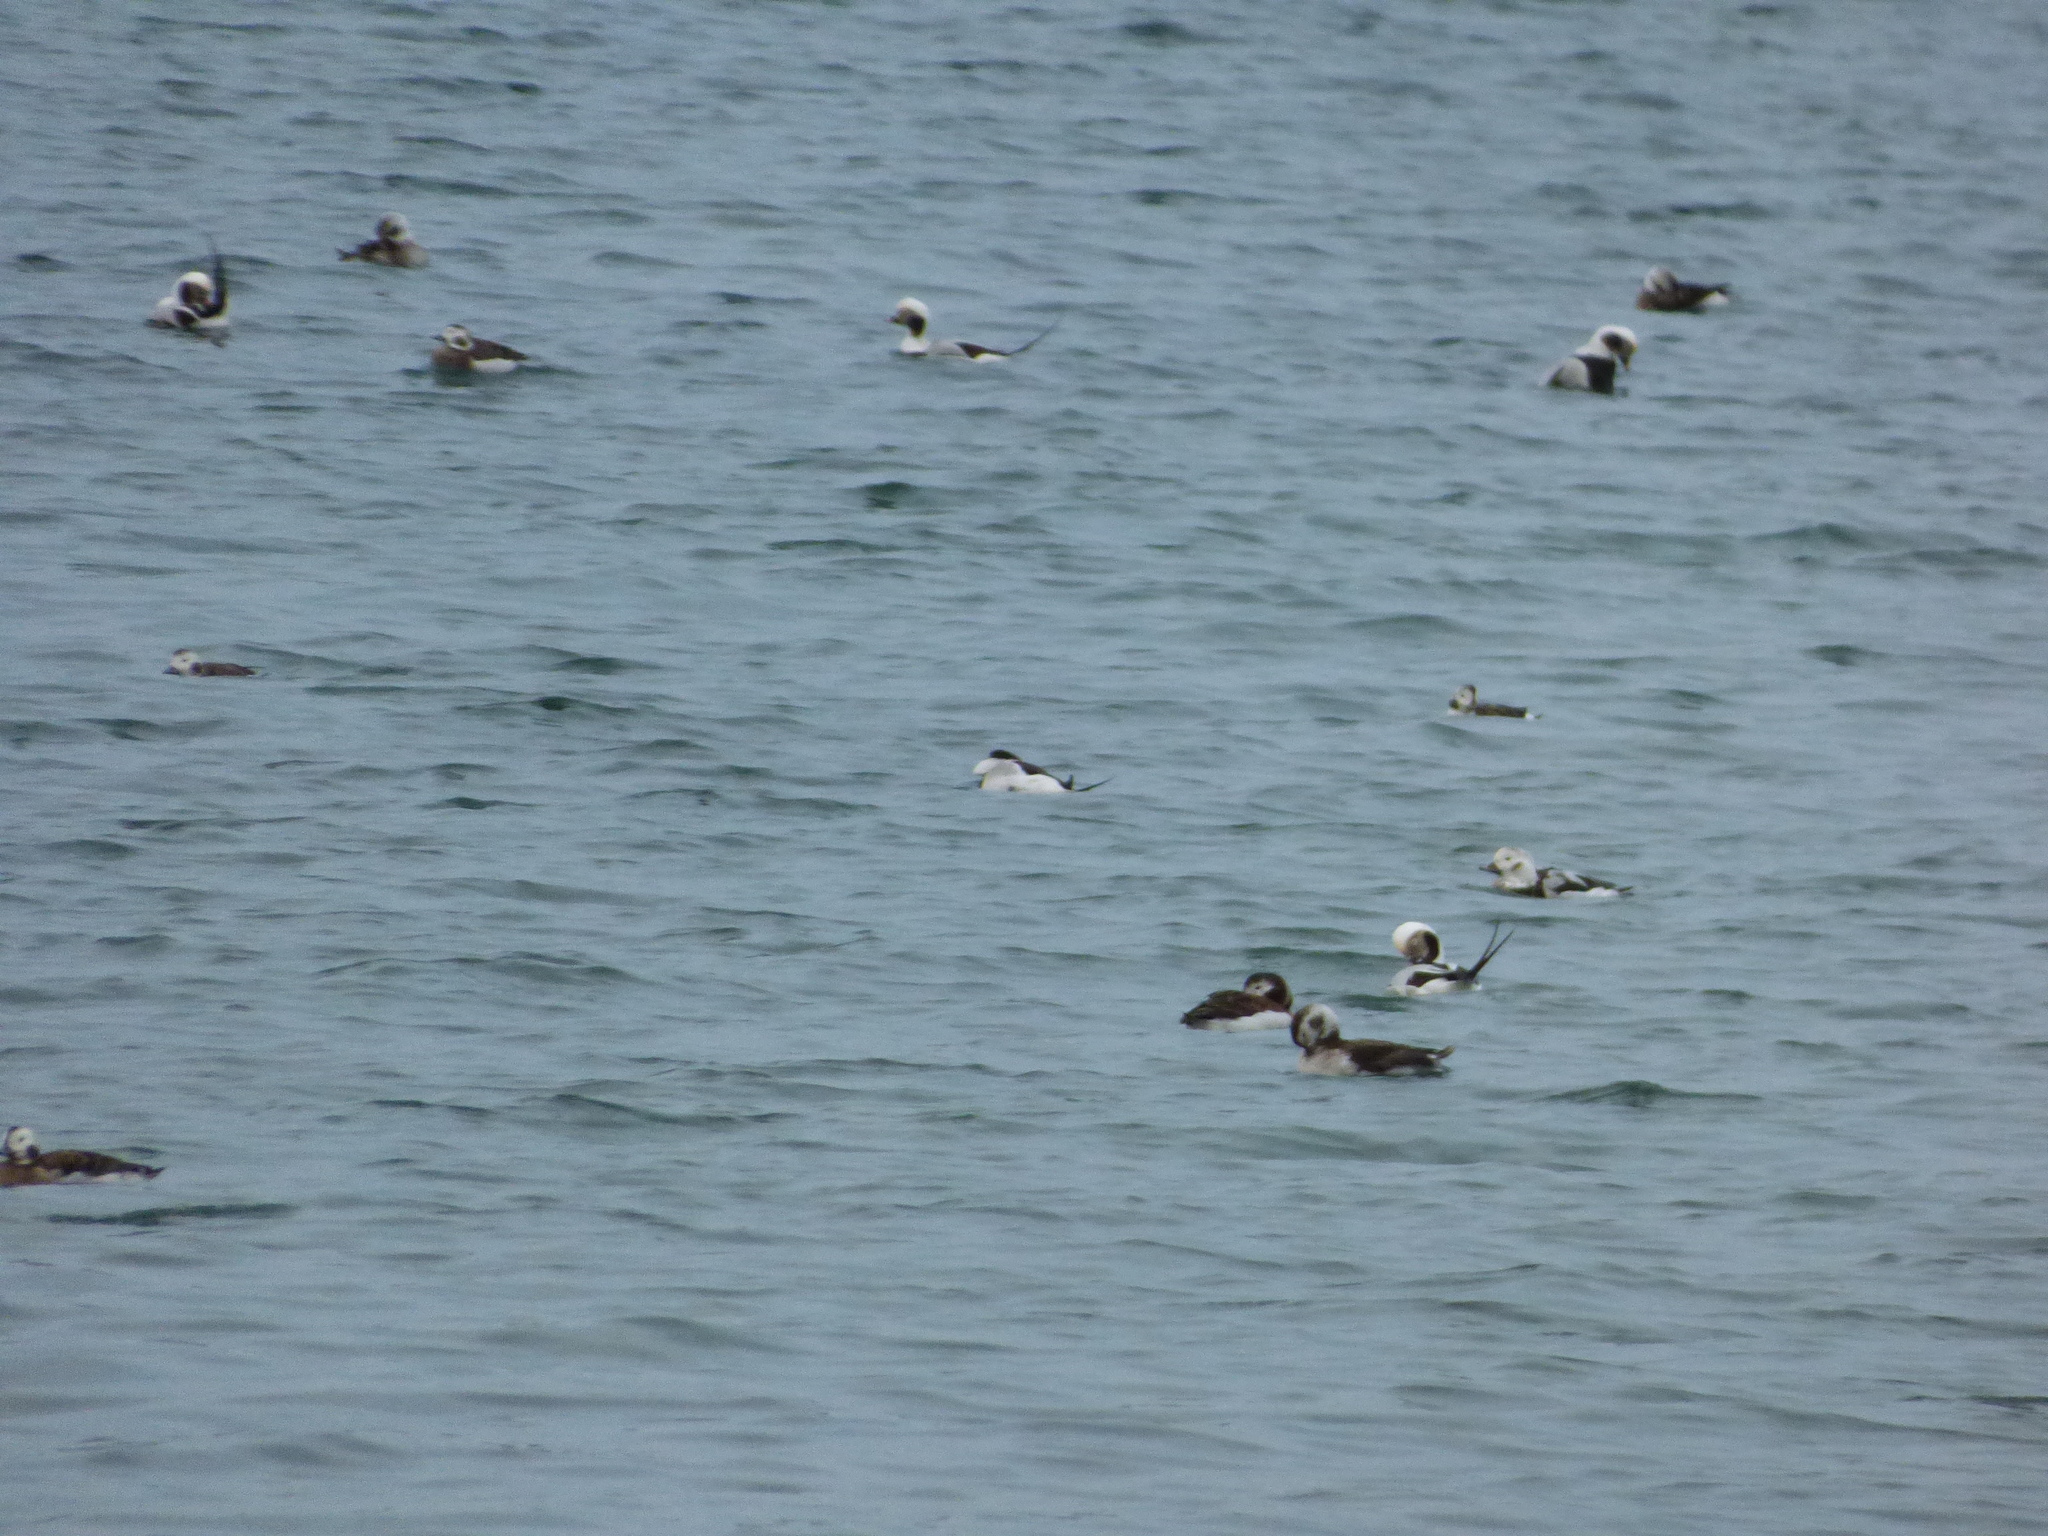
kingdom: Animalia
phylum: Chordata
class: Aves
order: Anseriformes
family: Anatidae
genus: Clangula
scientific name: Clangula hyemalis
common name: Long-tailed duck
